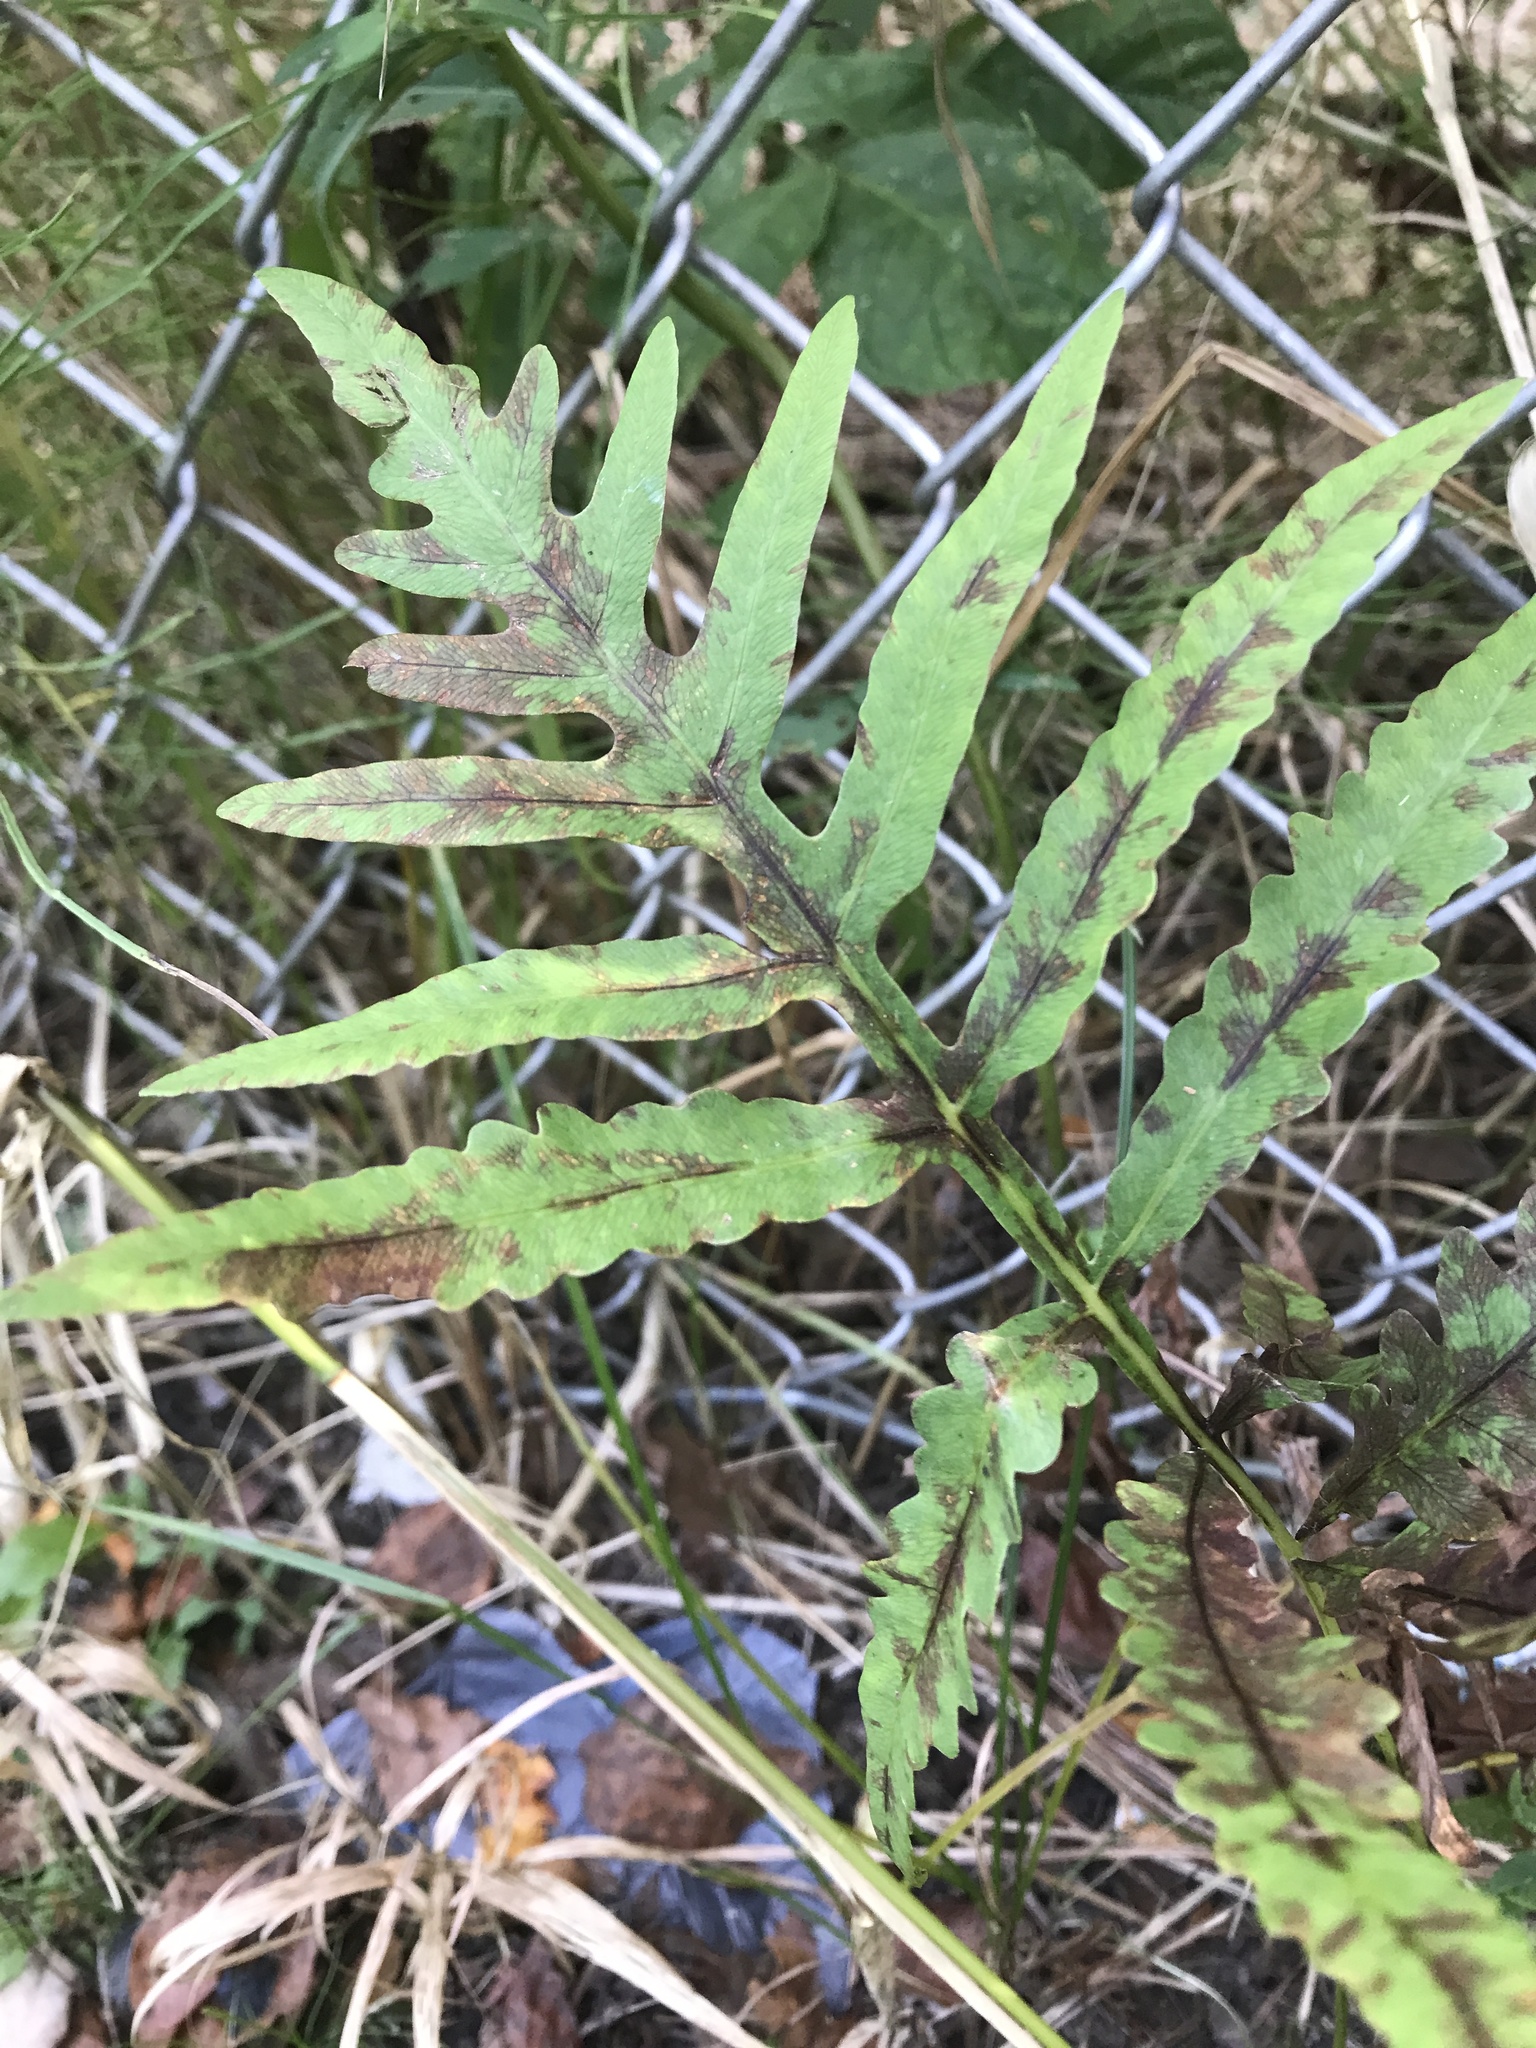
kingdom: Plantae
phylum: Tracheophyta
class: Polypodiopsida
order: Polypodiales
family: Onocleaceae
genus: Onoclea
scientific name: Onoclea sensibilis
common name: Sensitive fern
